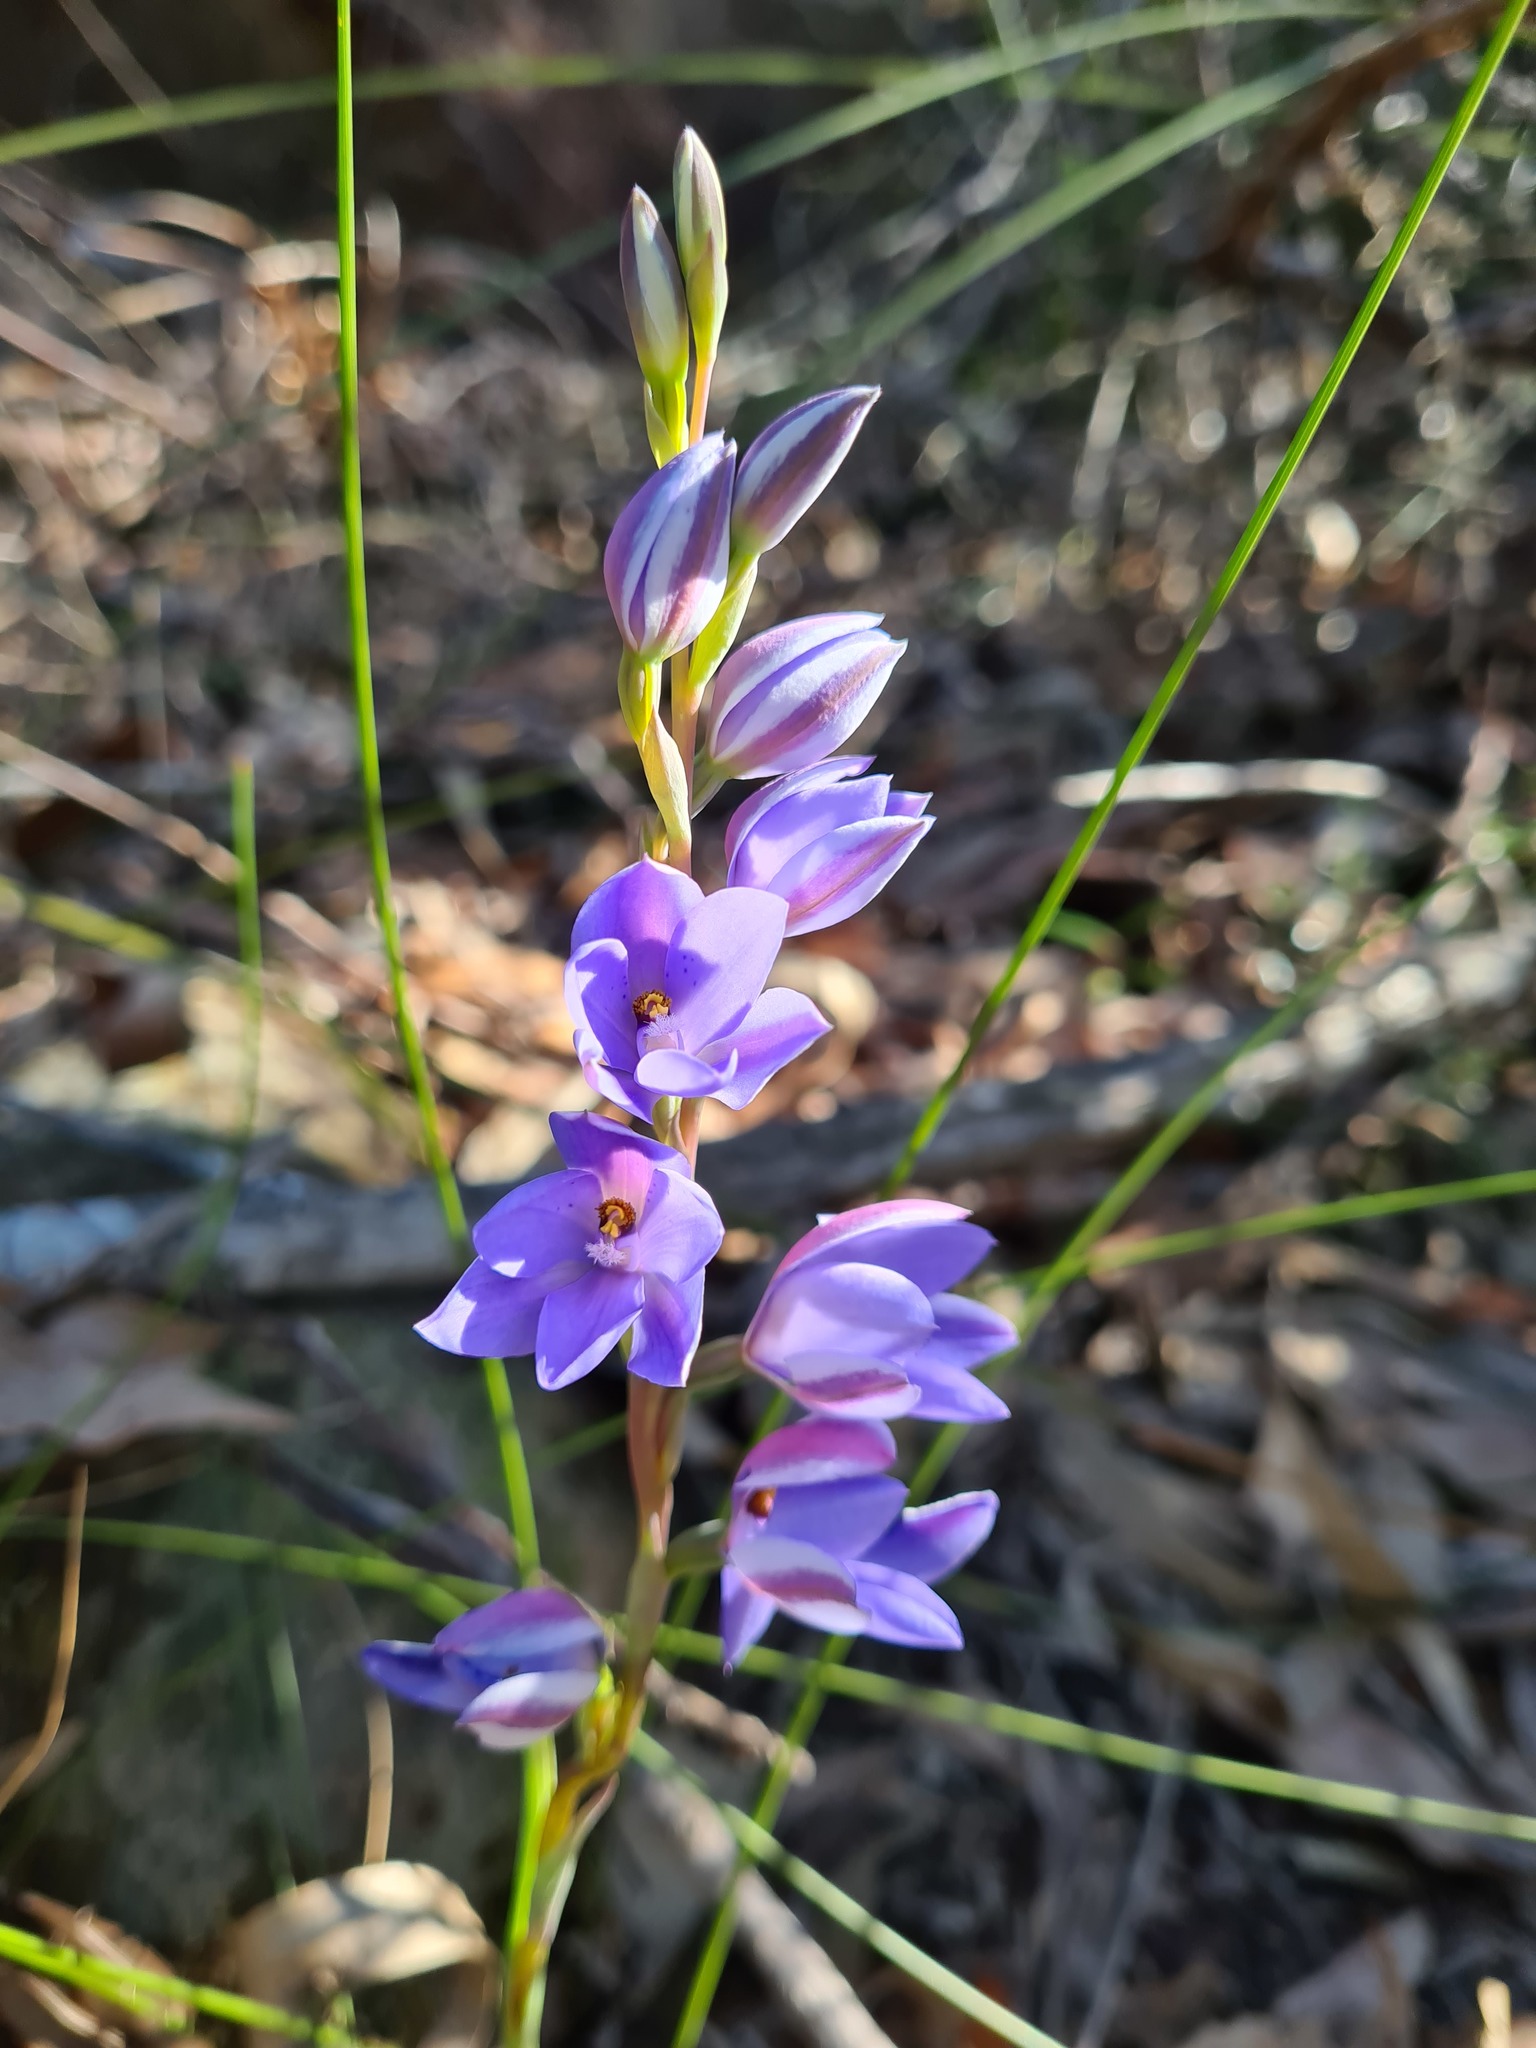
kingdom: Plantae
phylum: Tracheophyta
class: Liliopsida
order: Asparagales
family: Orchidaceae
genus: Thelymitra
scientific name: Thelymitra ixioides
